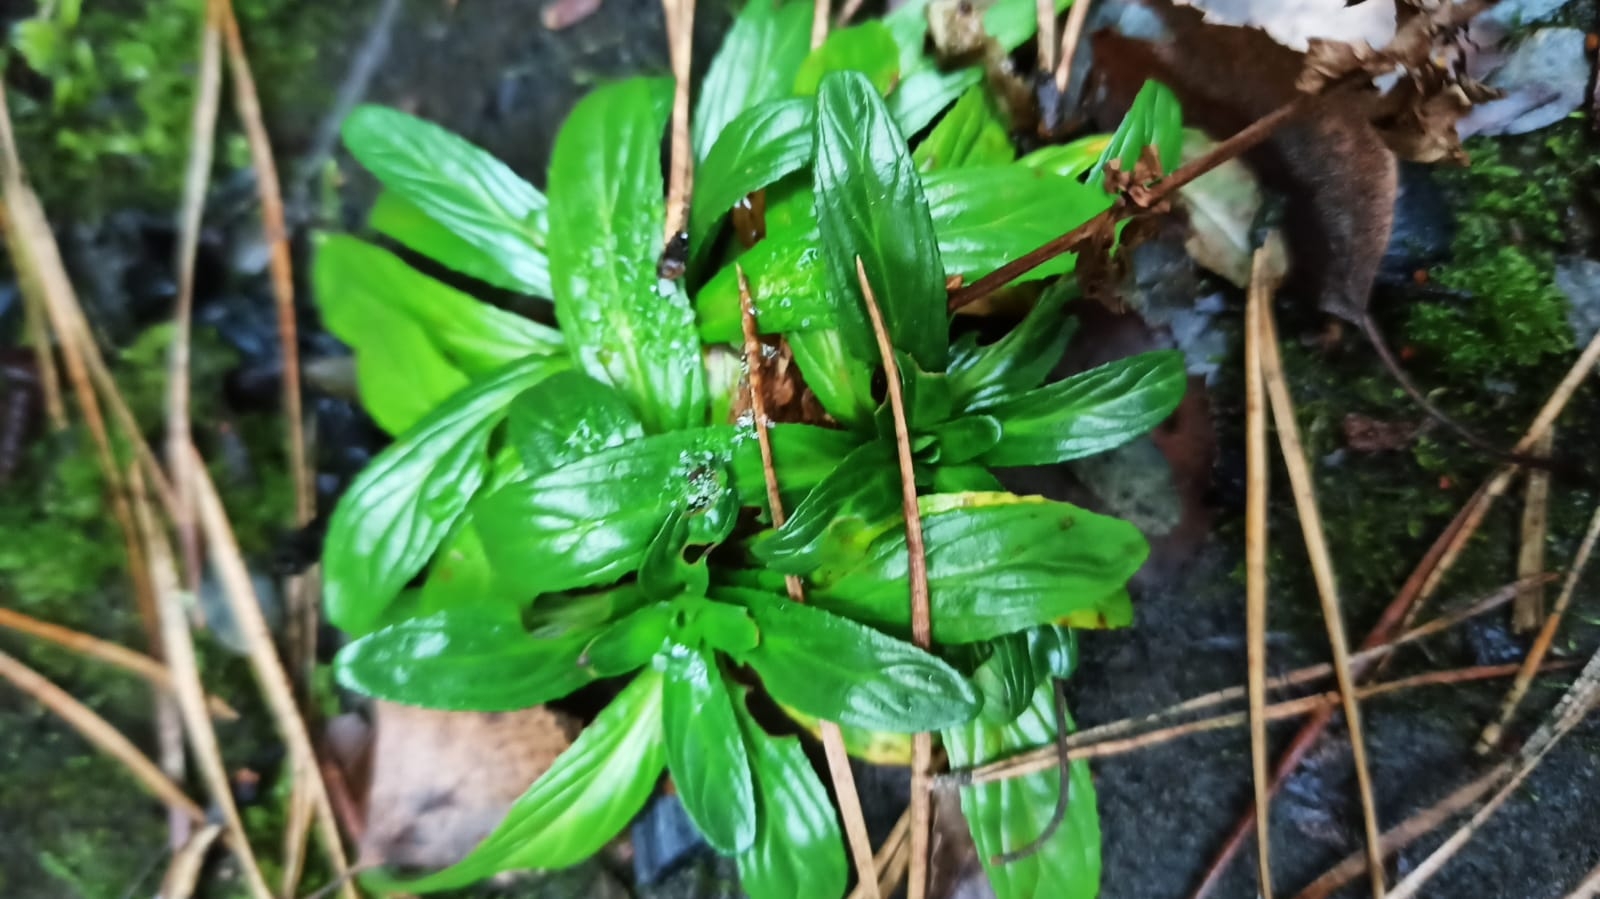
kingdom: Plantae
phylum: Tracheophyta
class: Magnoliopsida
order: Myrtales
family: Onagraceae
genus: Epilobium
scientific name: Epilobium
